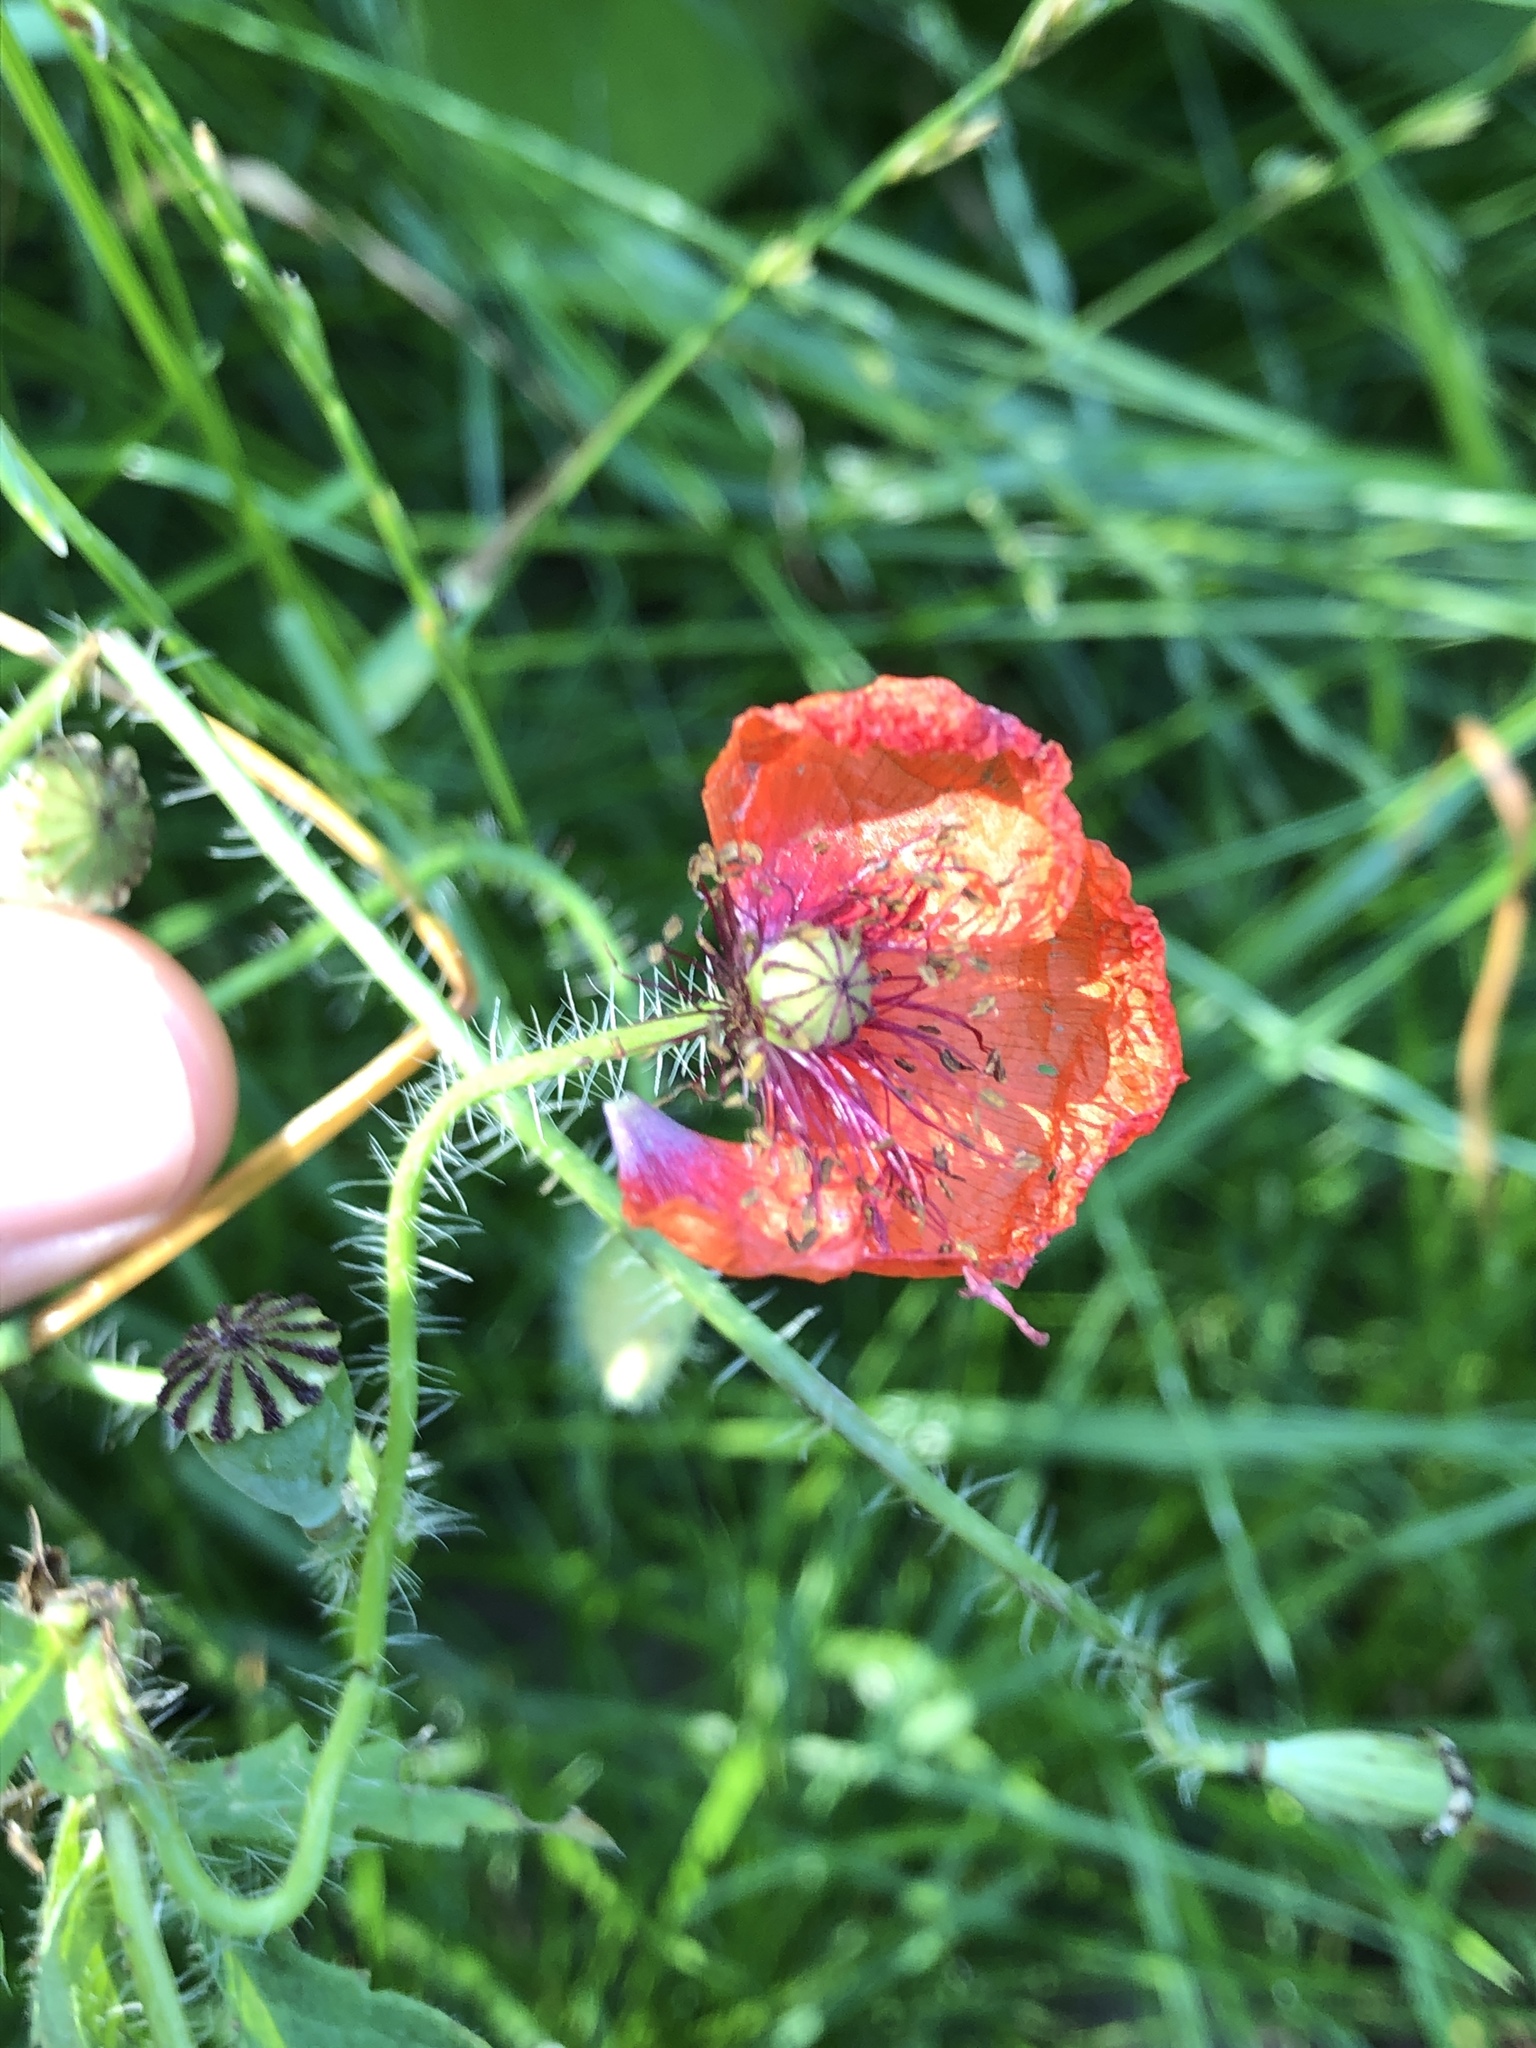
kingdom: Plantae
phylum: Tracheophyta
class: Magnoliopsida
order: Ranunculales
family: Papaveraceae
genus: Papaver
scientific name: Papaver dubium
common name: Long-headed poppy
